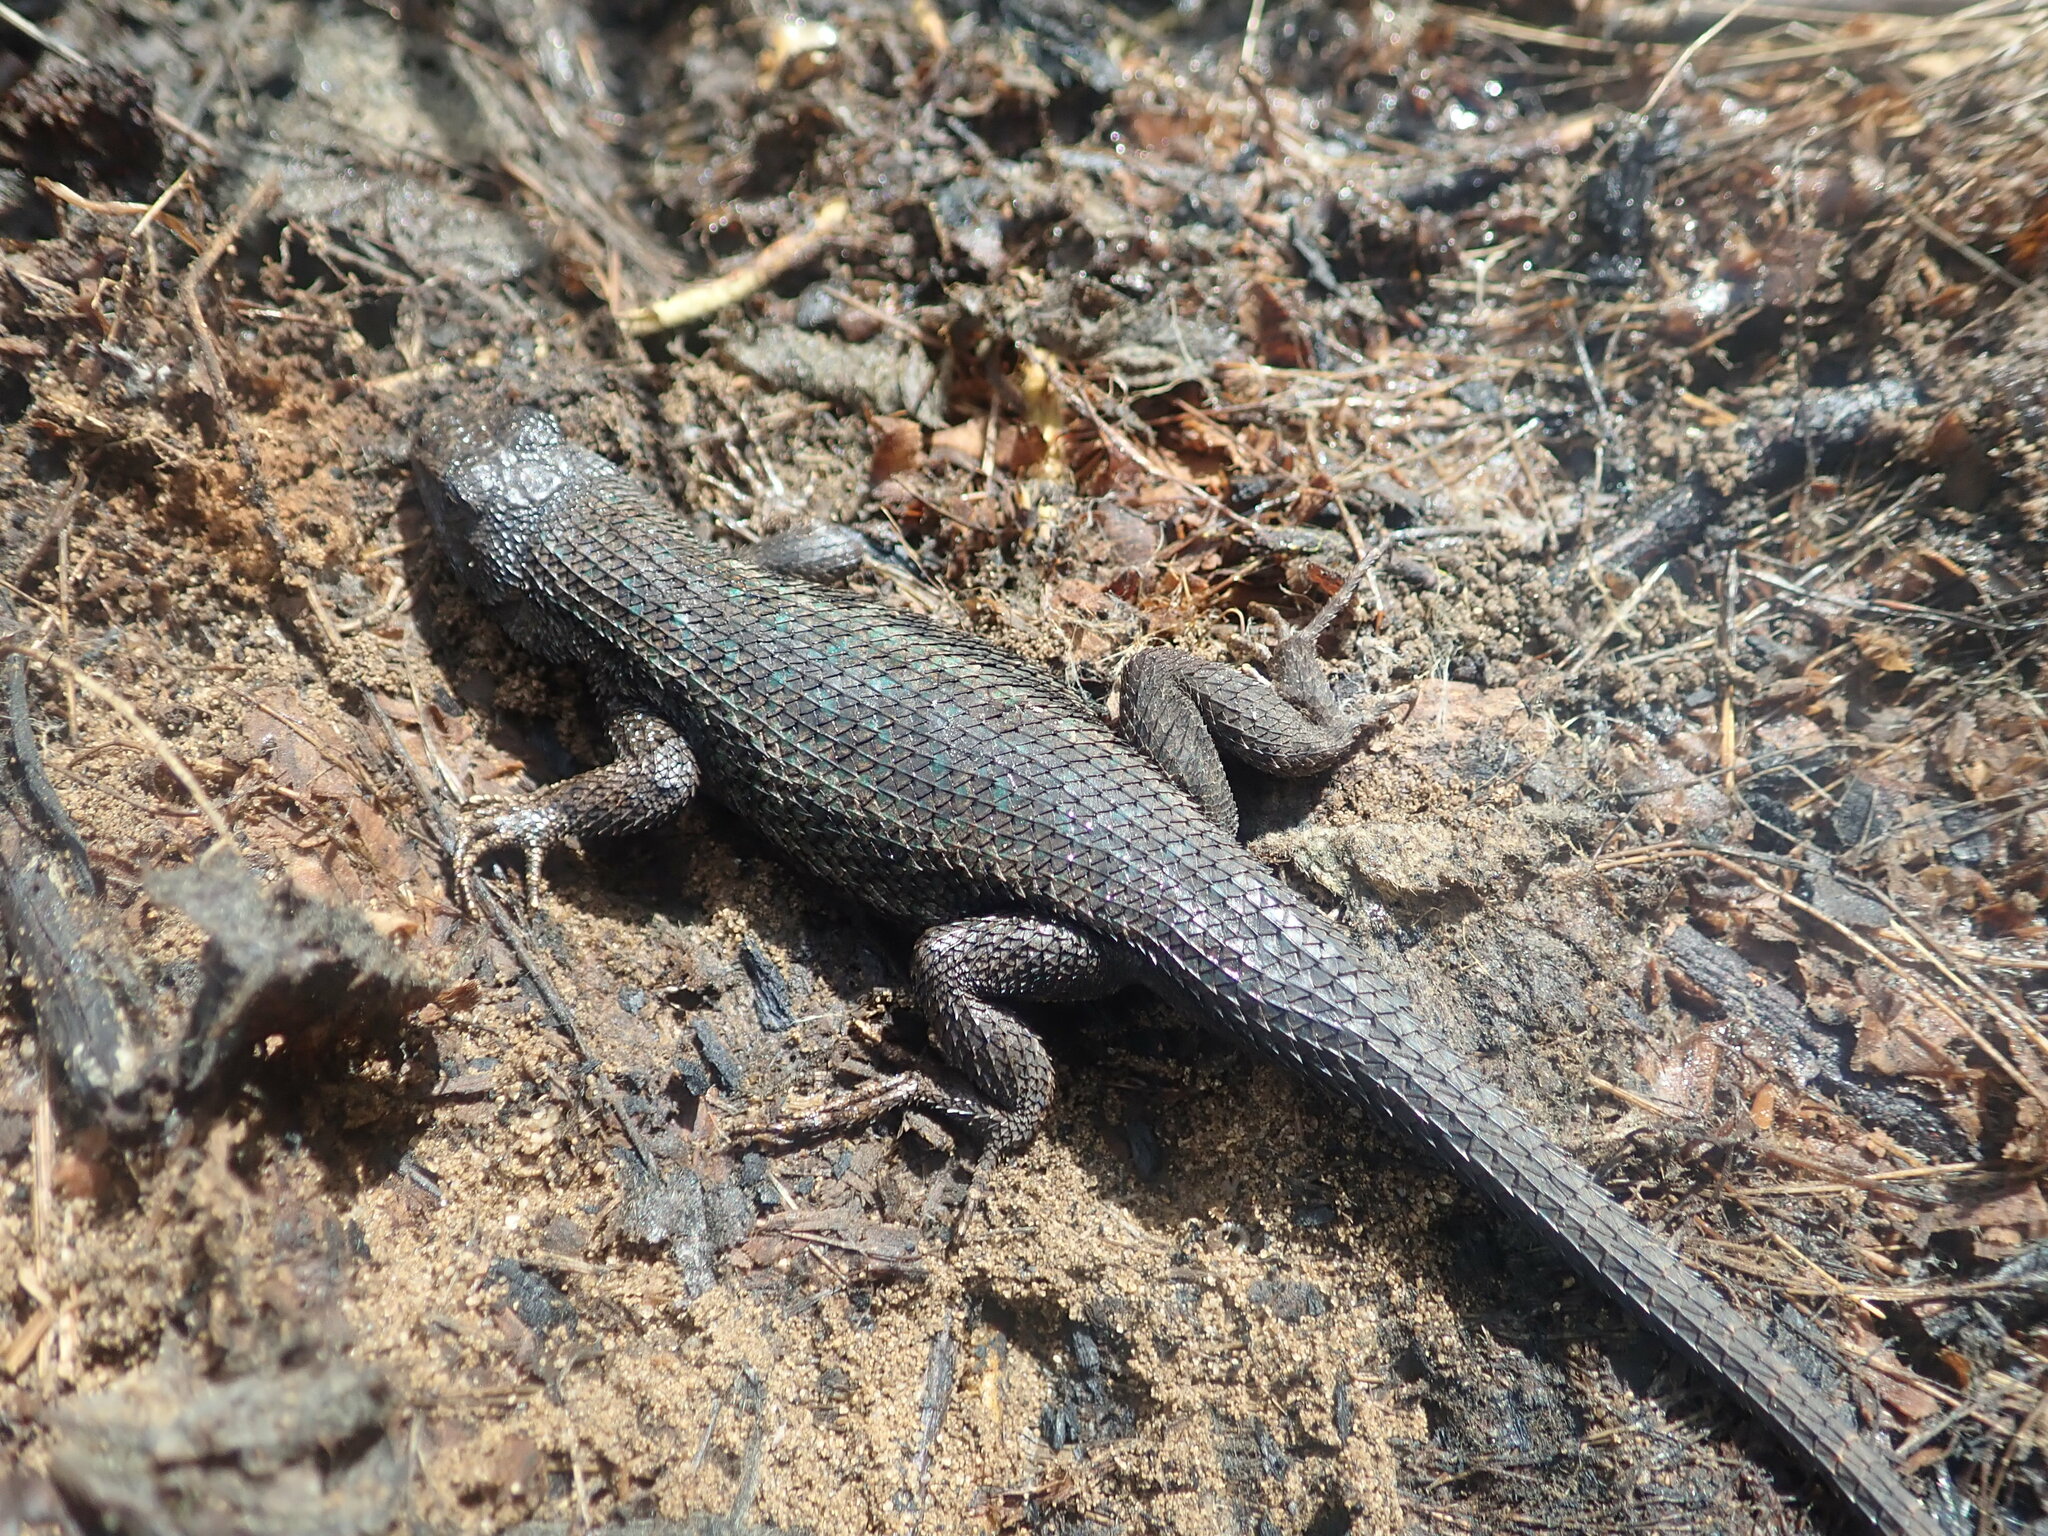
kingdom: Animalia
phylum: Chordata
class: Squamata
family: Phrynosomatidae
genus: Sceloporus
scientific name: Sceloporus occidentalis
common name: Western fence lizard
